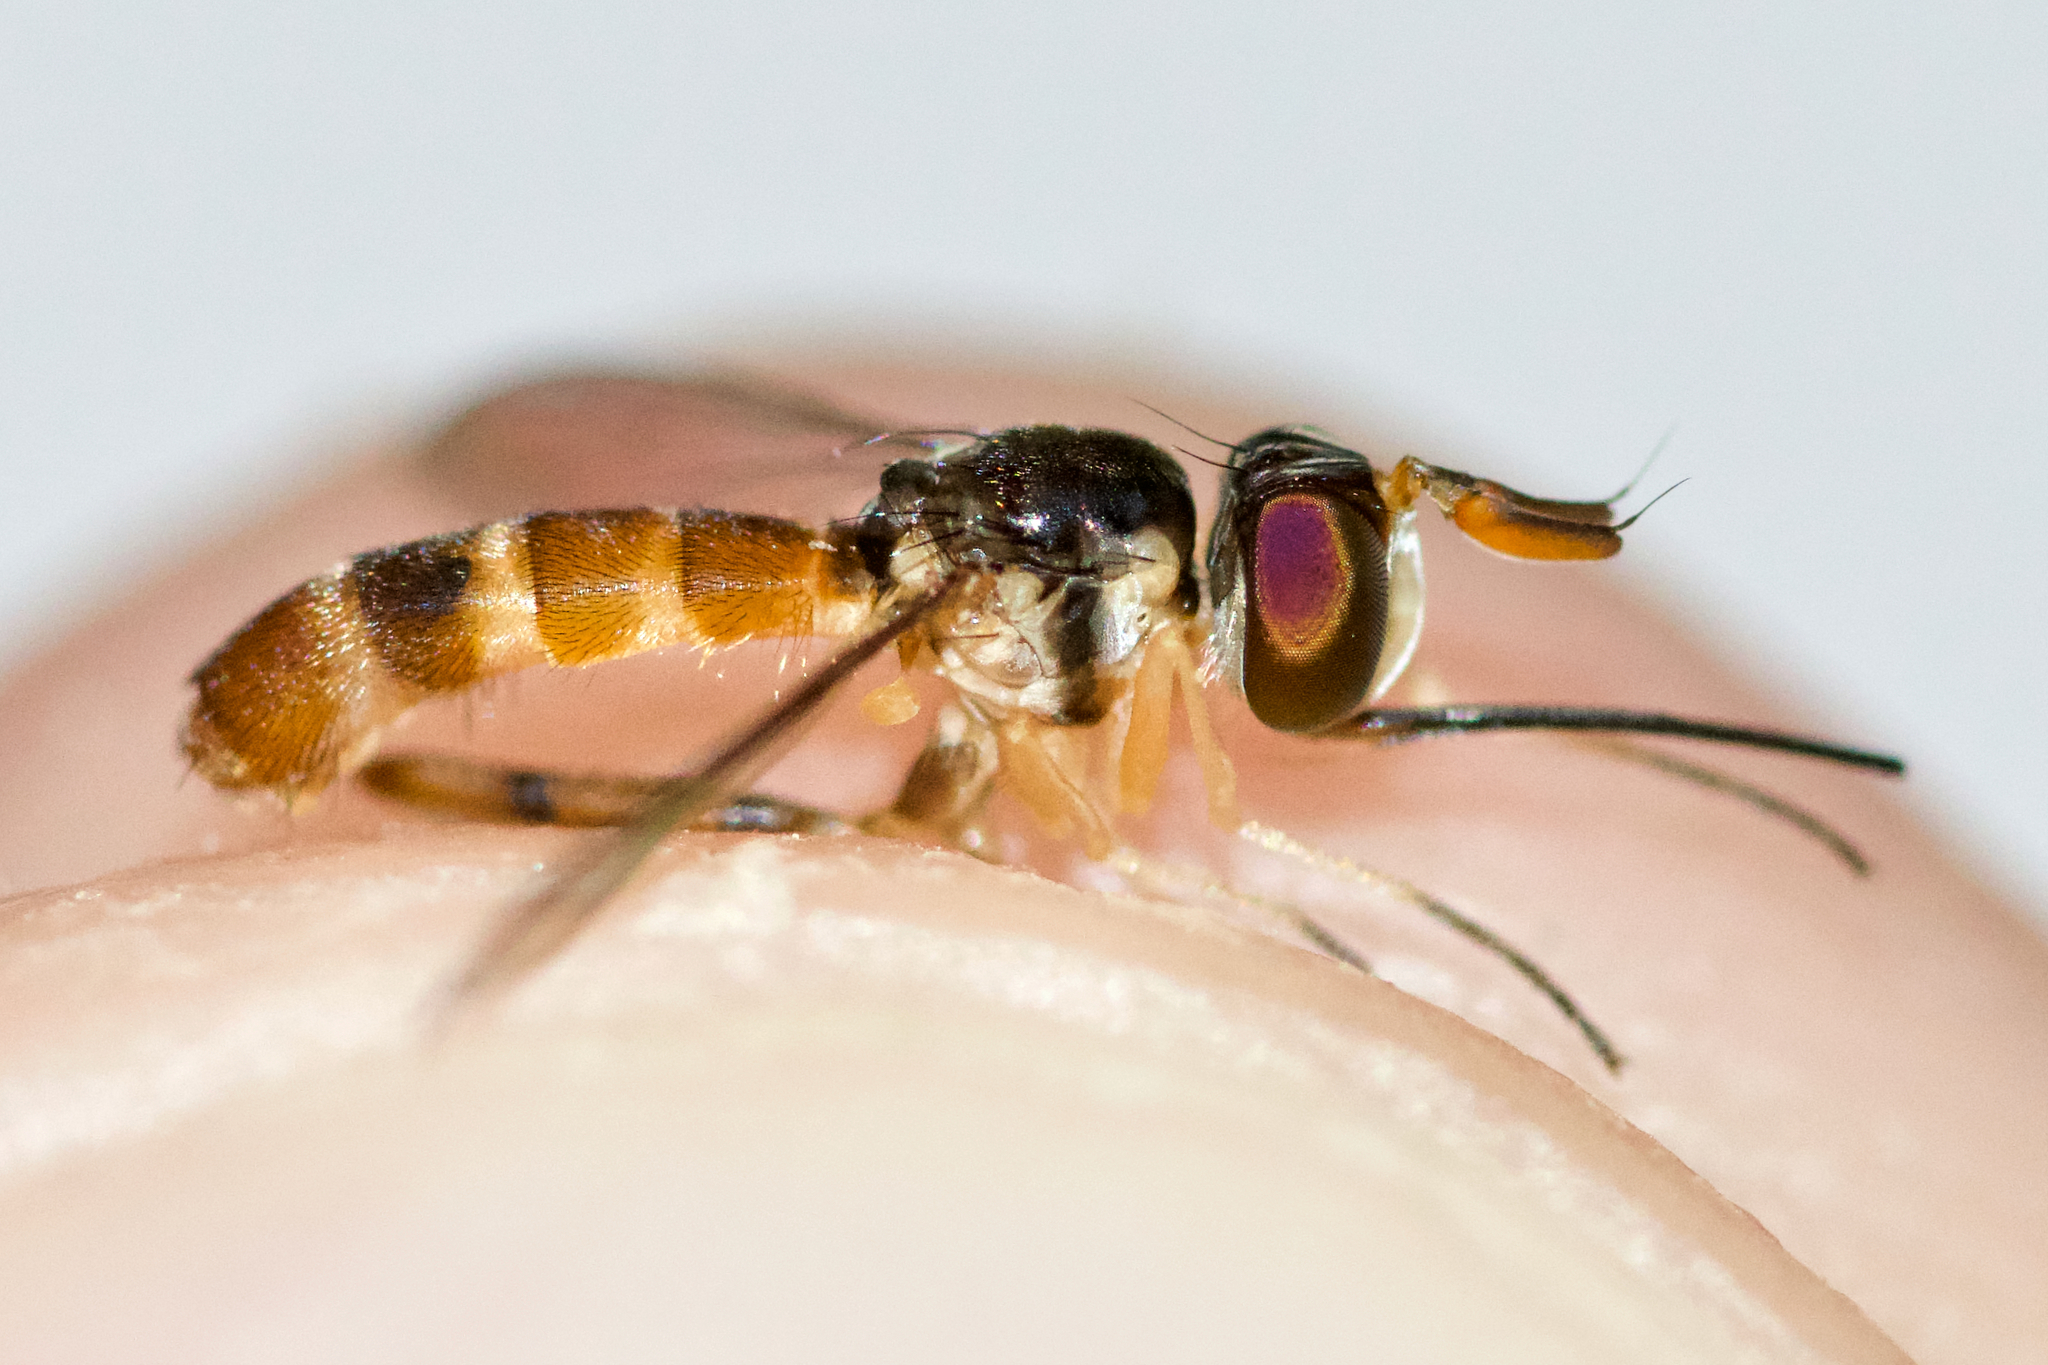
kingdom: Animalia
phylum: Arthropoda
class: Insecta
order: Diptera
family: Conopidae
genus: Stylogaster
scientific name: Stylogaster neglecta
